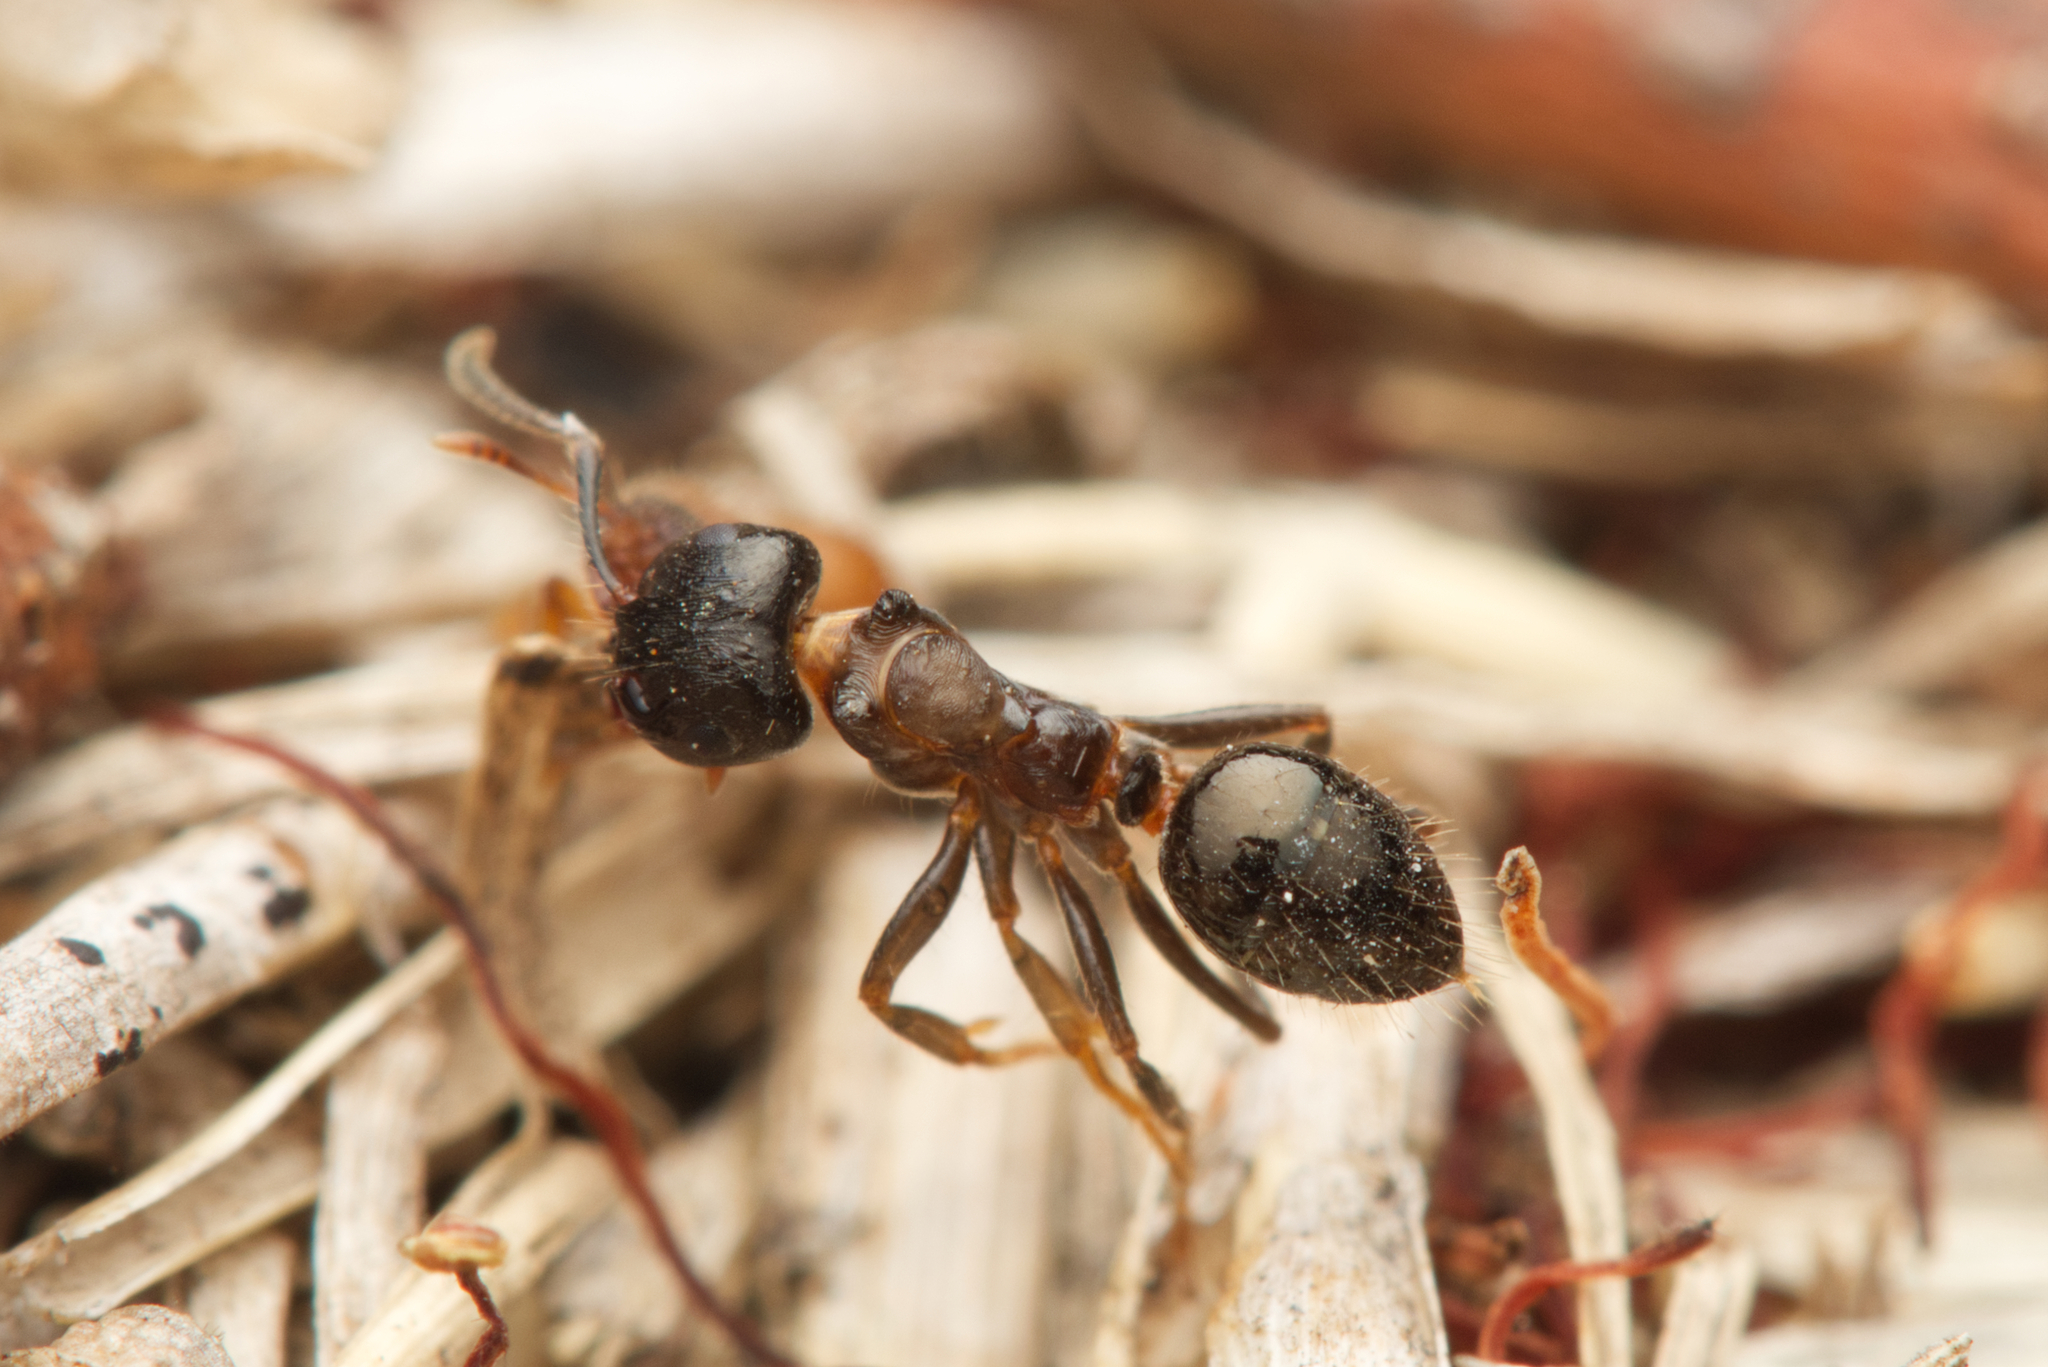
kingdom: Animalia
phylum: Arthropoda
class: Insecta
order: Hymenoptera
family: Formicidae
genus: Notoncus
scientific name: Notoncus ectatommoides
